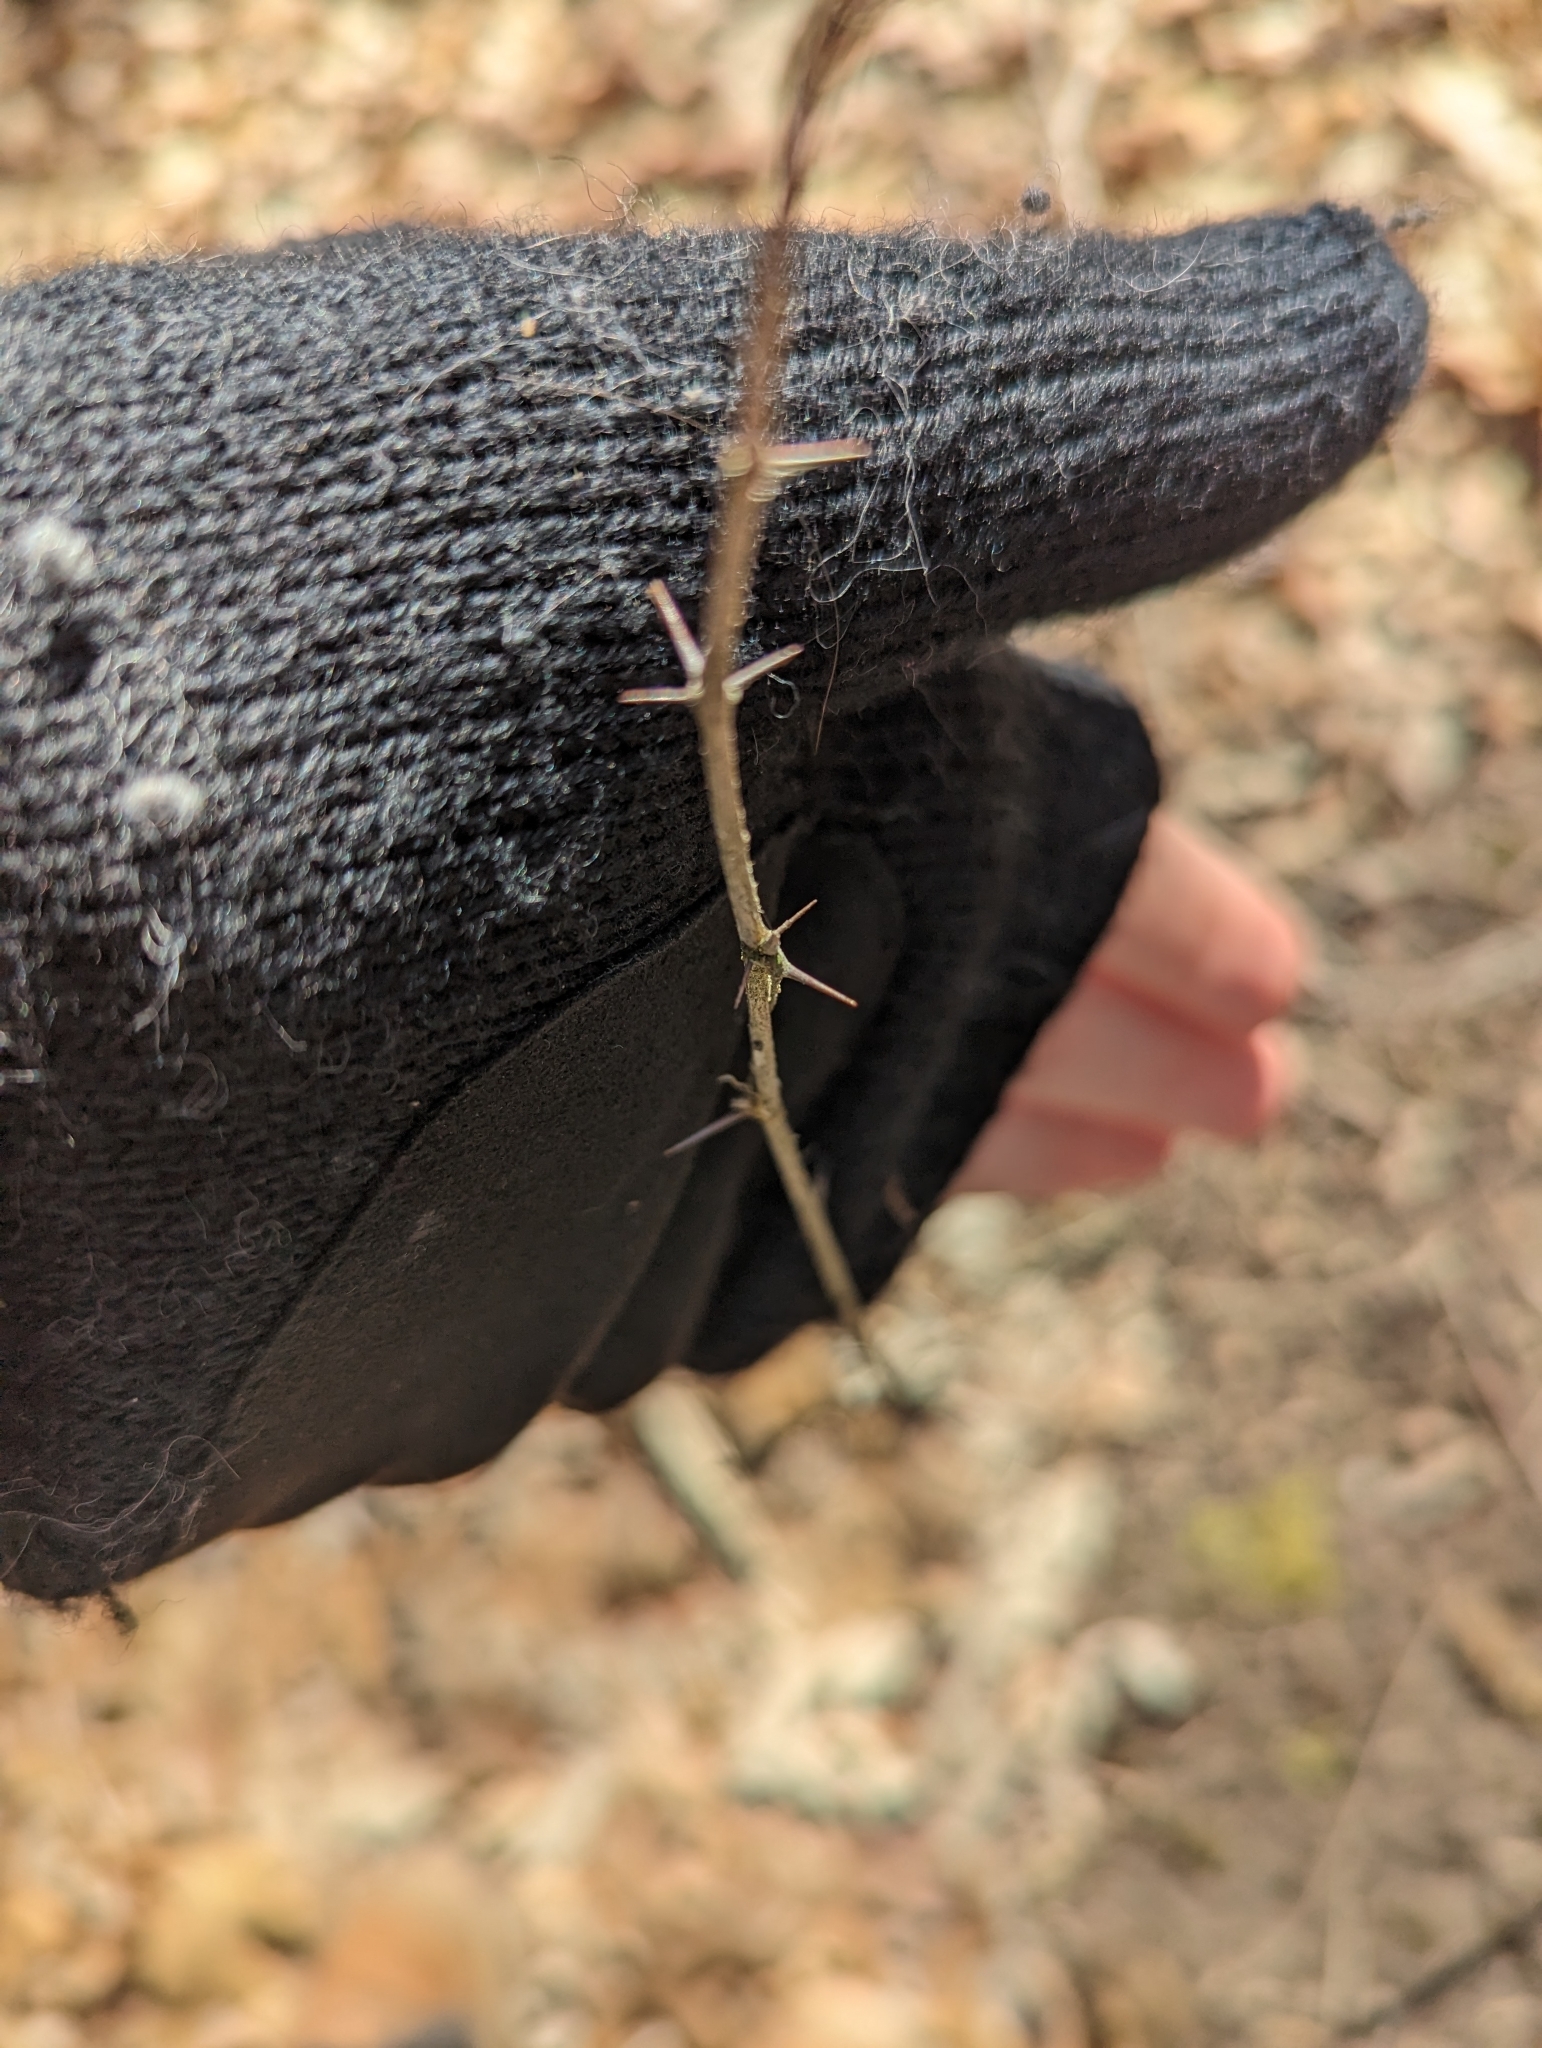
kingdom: Plantae
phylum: Tracheophyta
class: Magnoliopsida
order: Saxifragales
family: Grossulariaceae
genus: Ribes
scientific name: Ribes cynosbati
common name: American gooseberry
